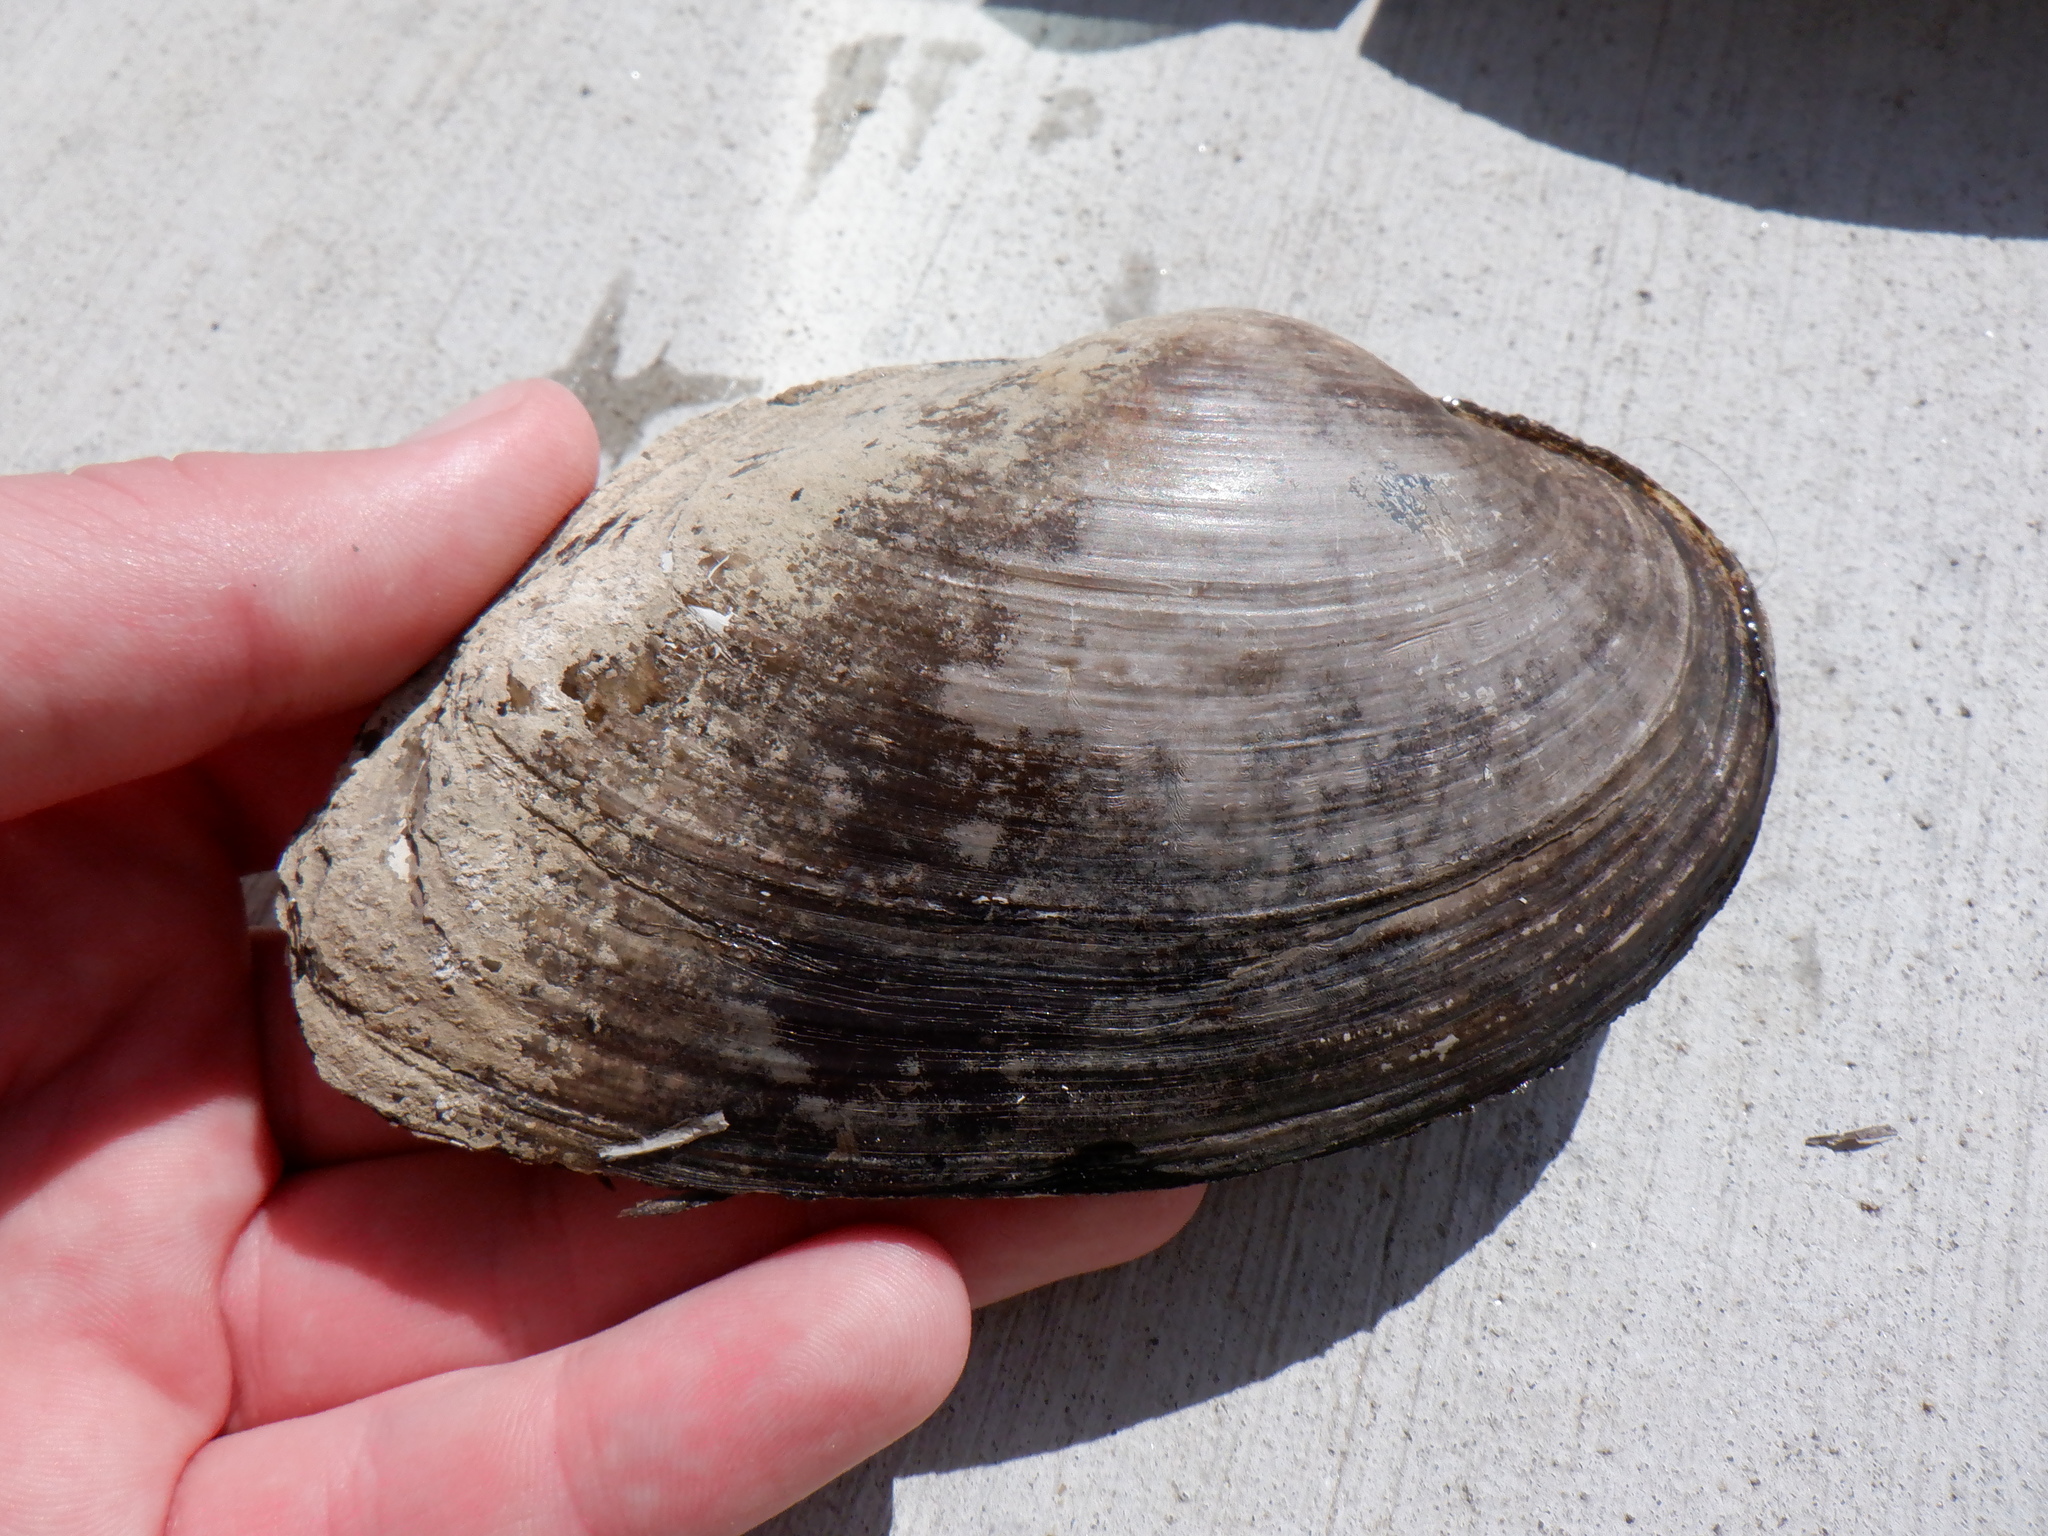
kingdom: Animalia
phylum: Mollusca
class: Bivalvia
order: Unionida
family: Unionidae
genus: Pyganodon
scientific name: Pyganodon grandis
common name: Giant floater
